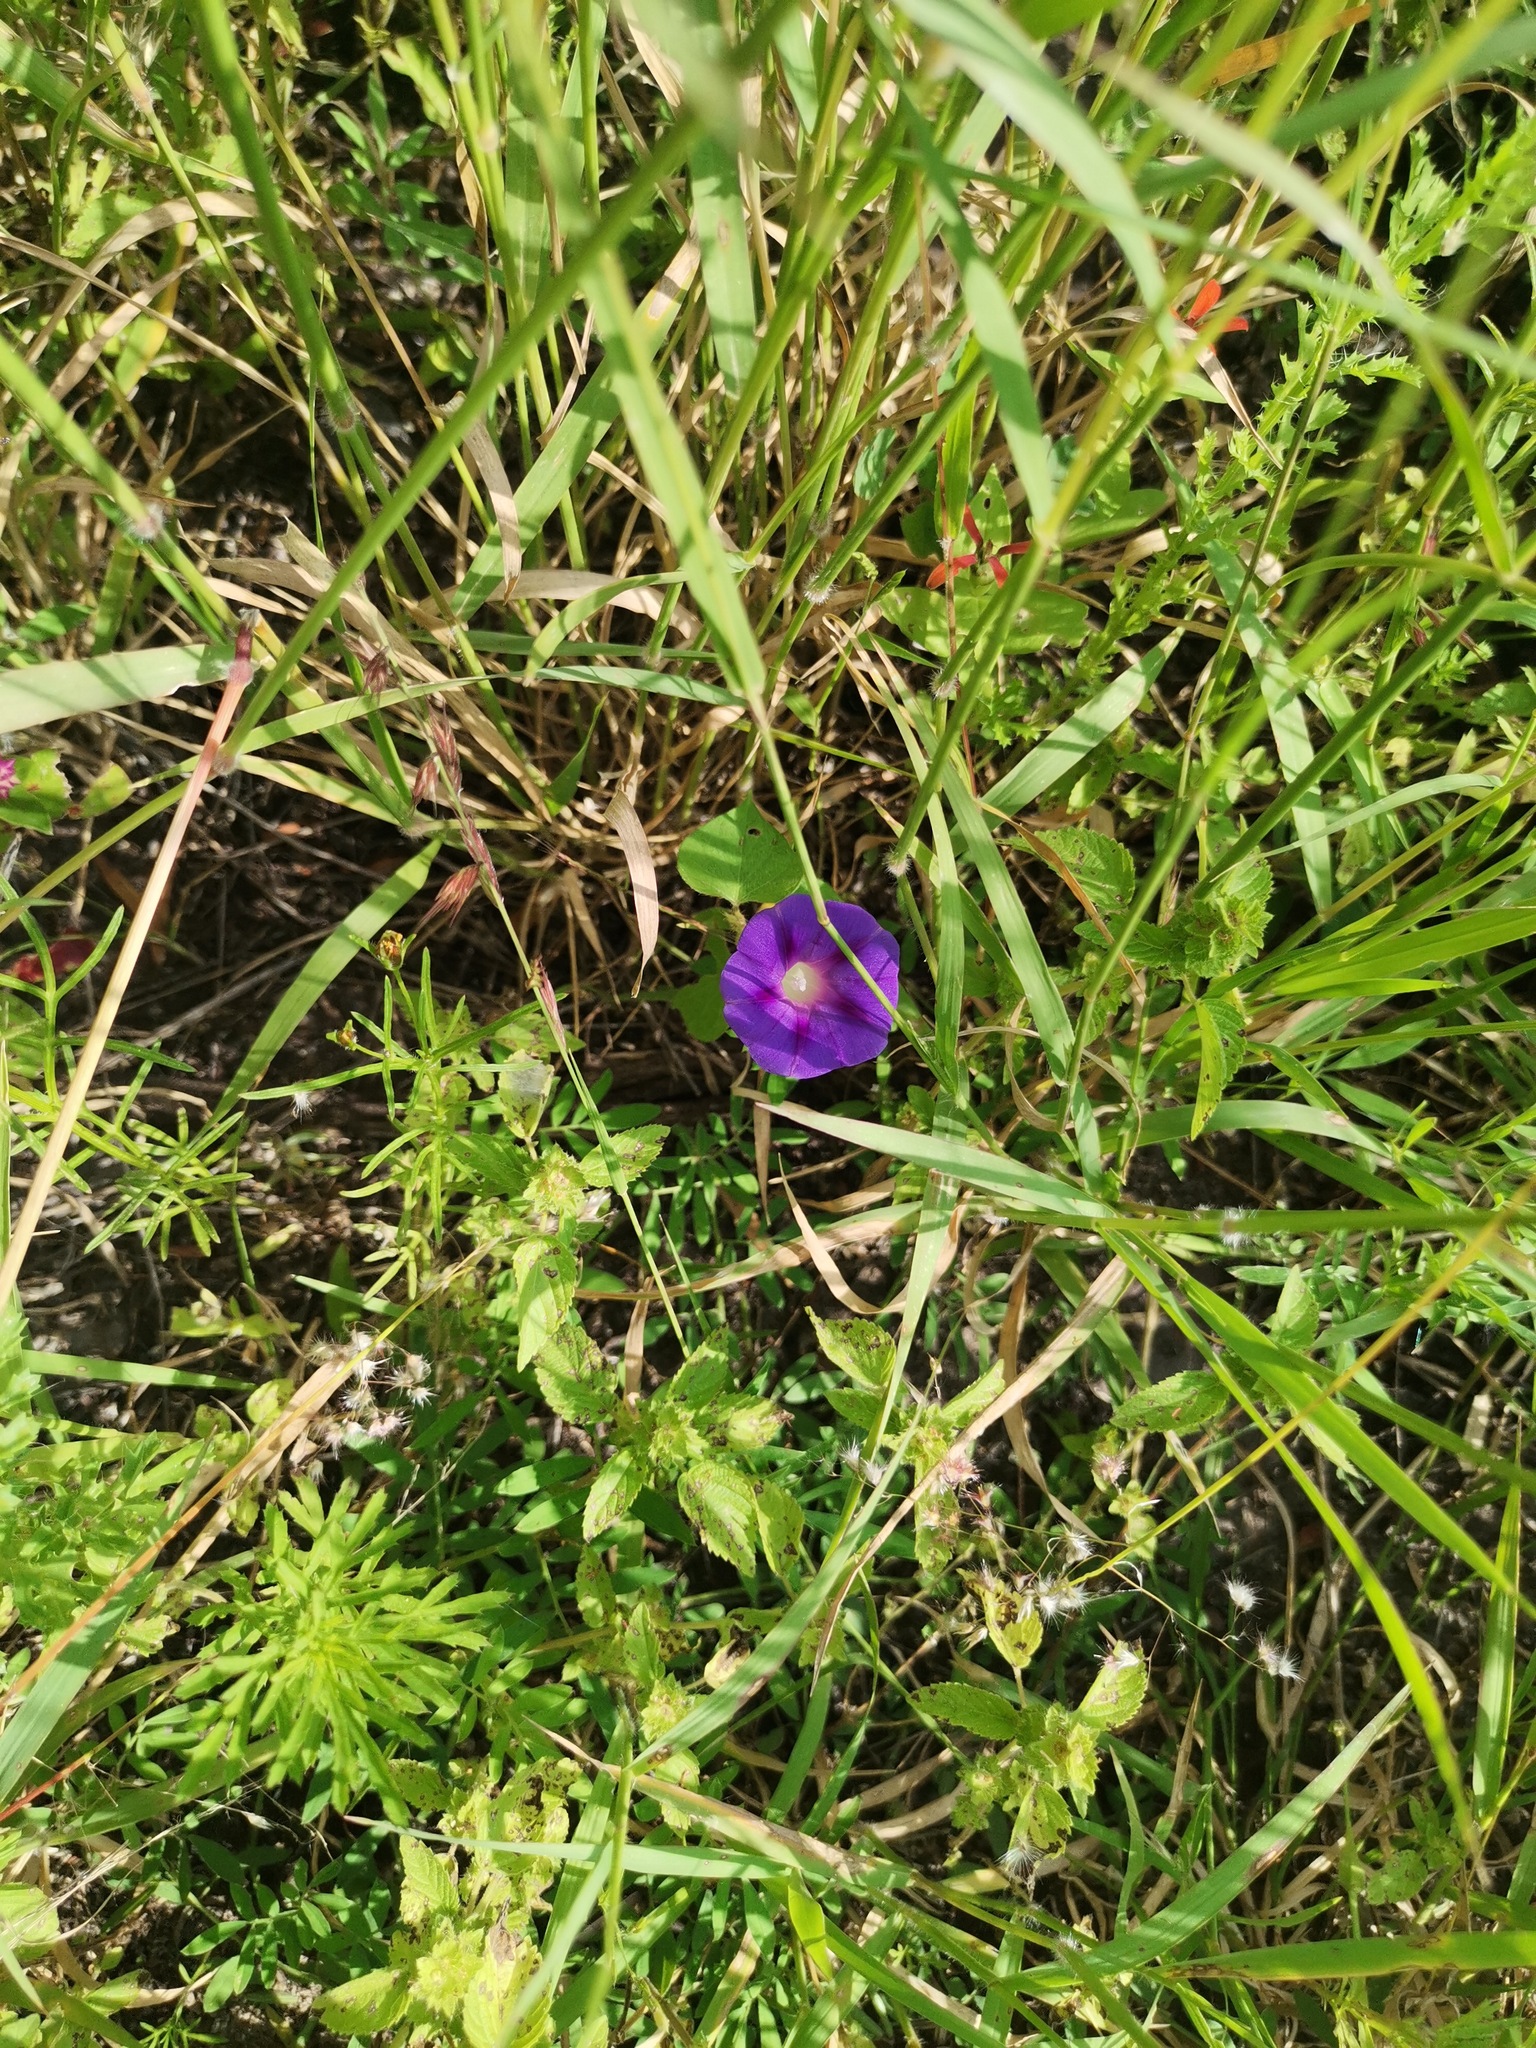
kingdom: Plantae
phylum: Tracheophyta
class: Magnoliopsida
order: Solanales
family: Convolvulaceae
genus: Ipomoea
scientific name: Ipomoea purpurea
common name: Common morning-glory
